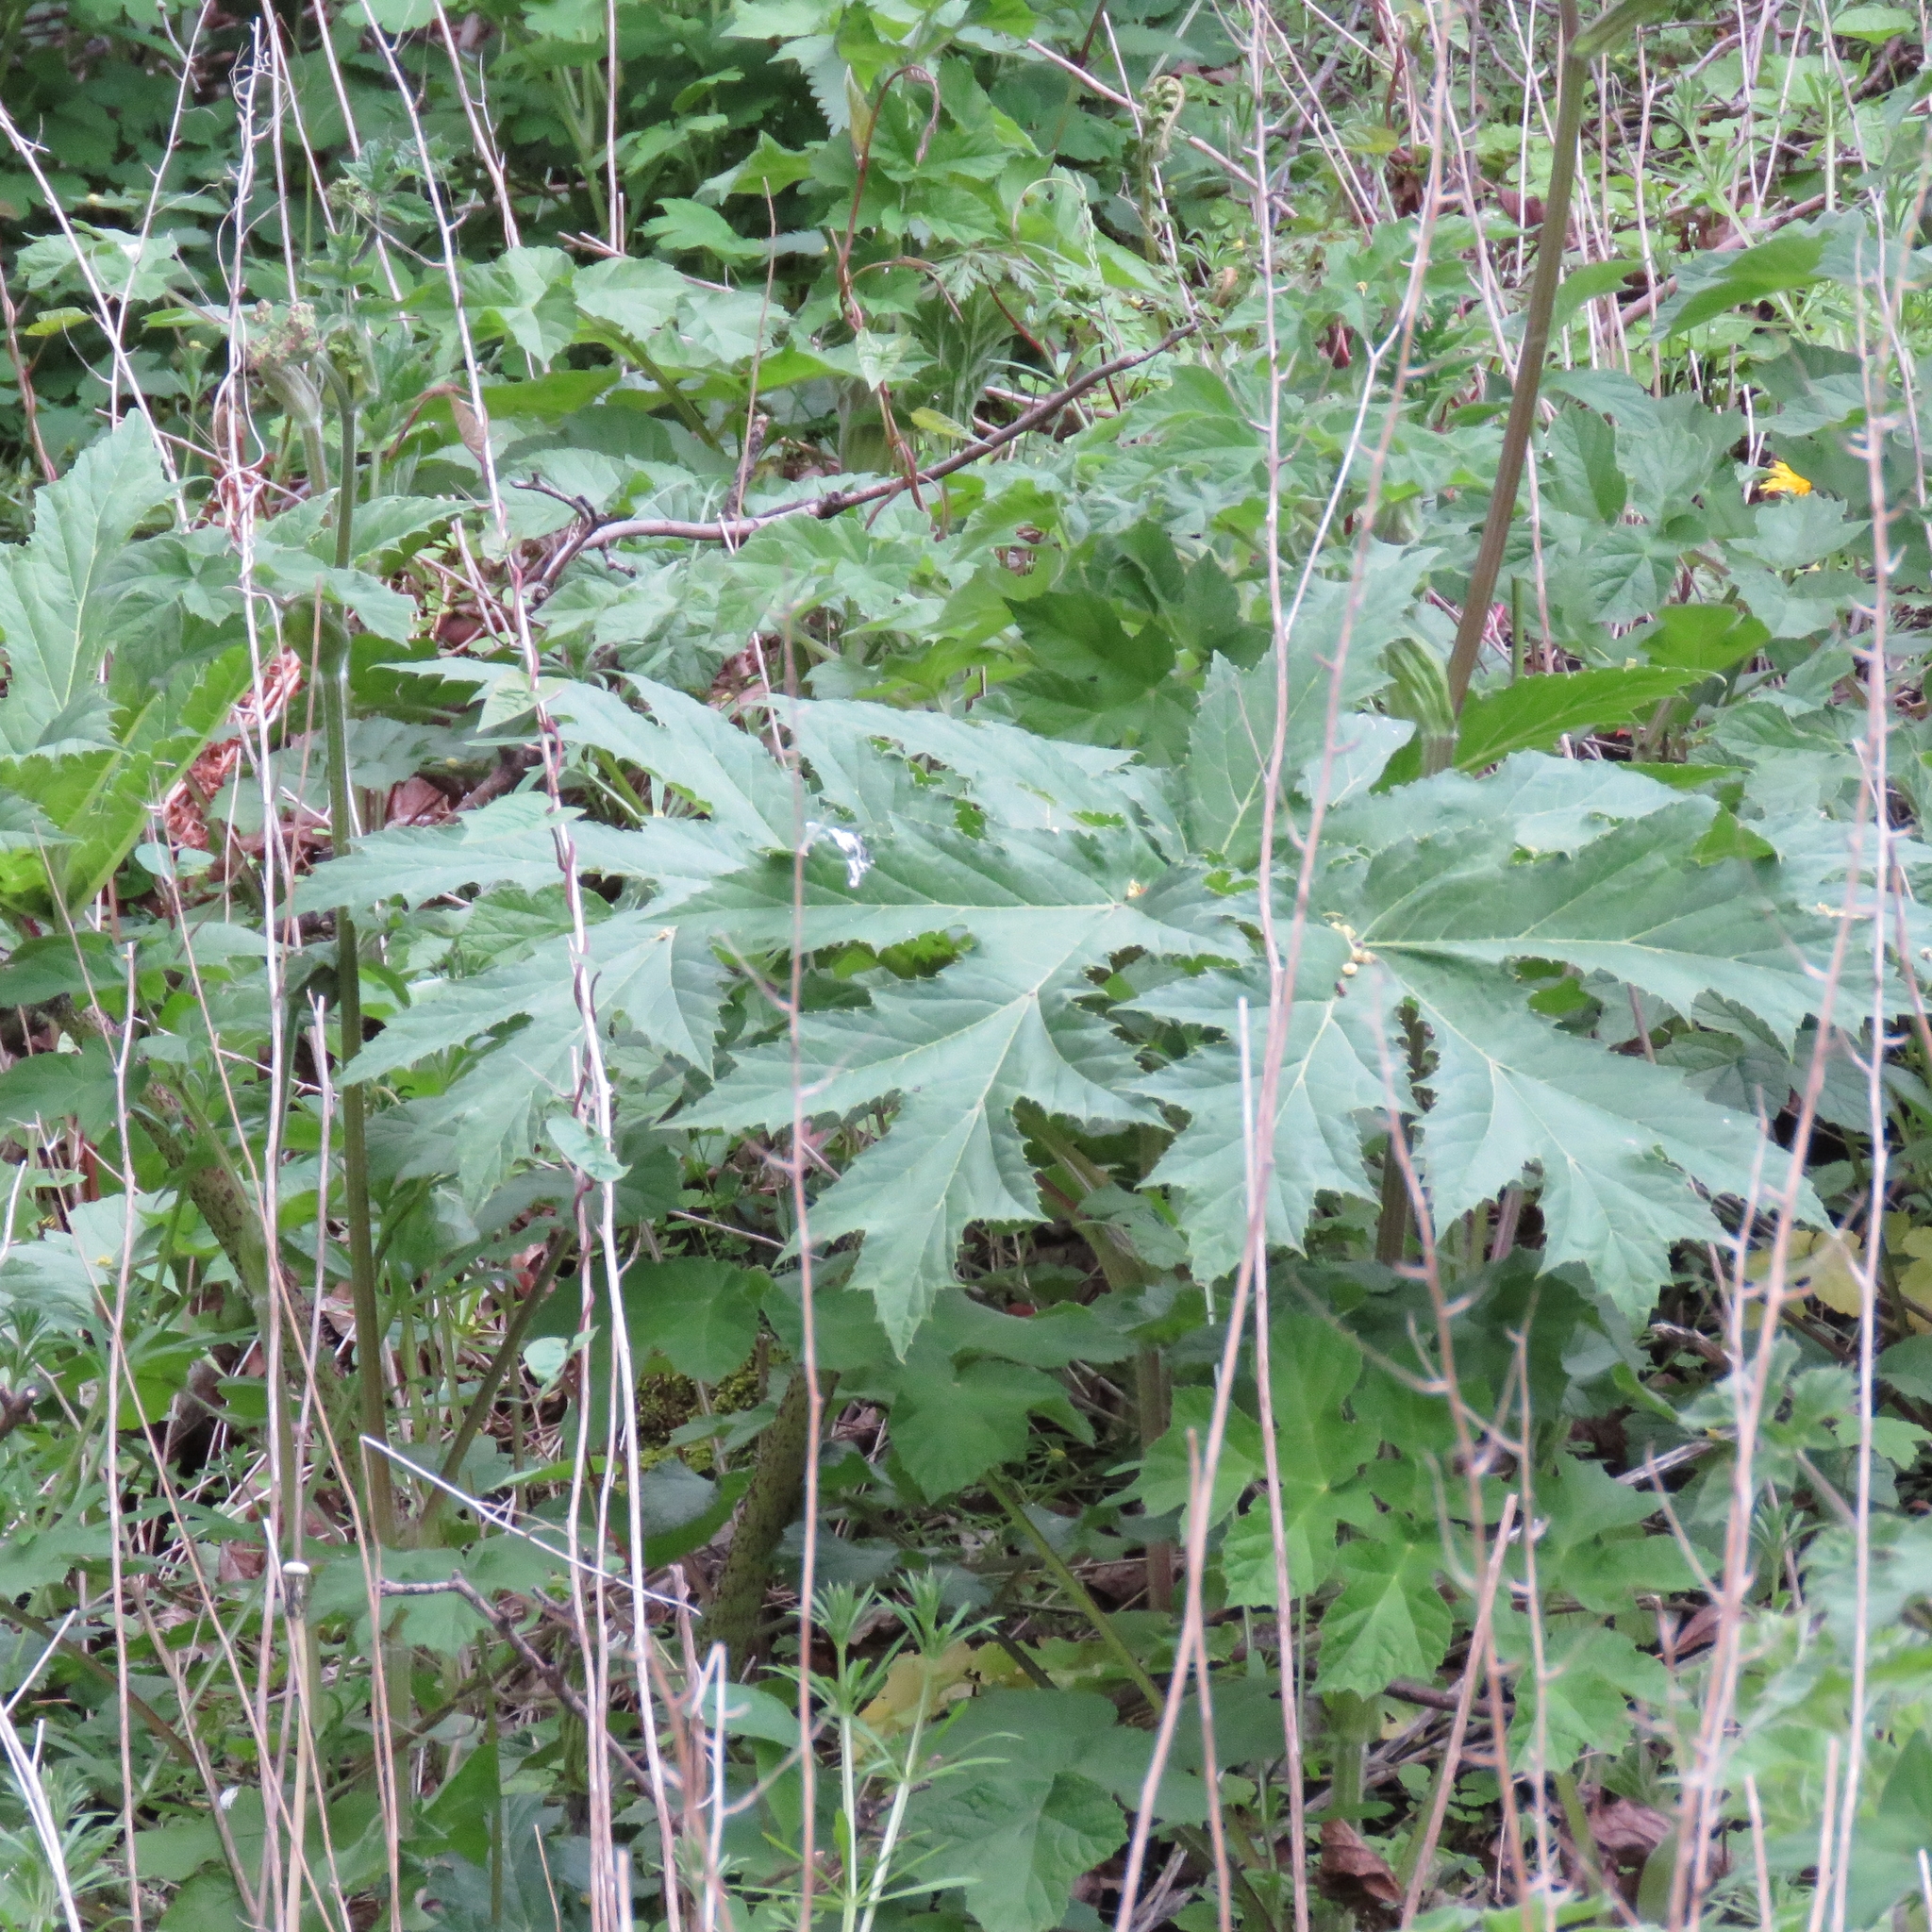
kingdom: Plantae
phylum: Tracheophyta
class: Magnoliopsida
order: Apiales
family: Apiaceae
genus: Heracleum
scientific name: Heracleum mantegazzianum
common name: Giant hogweed
